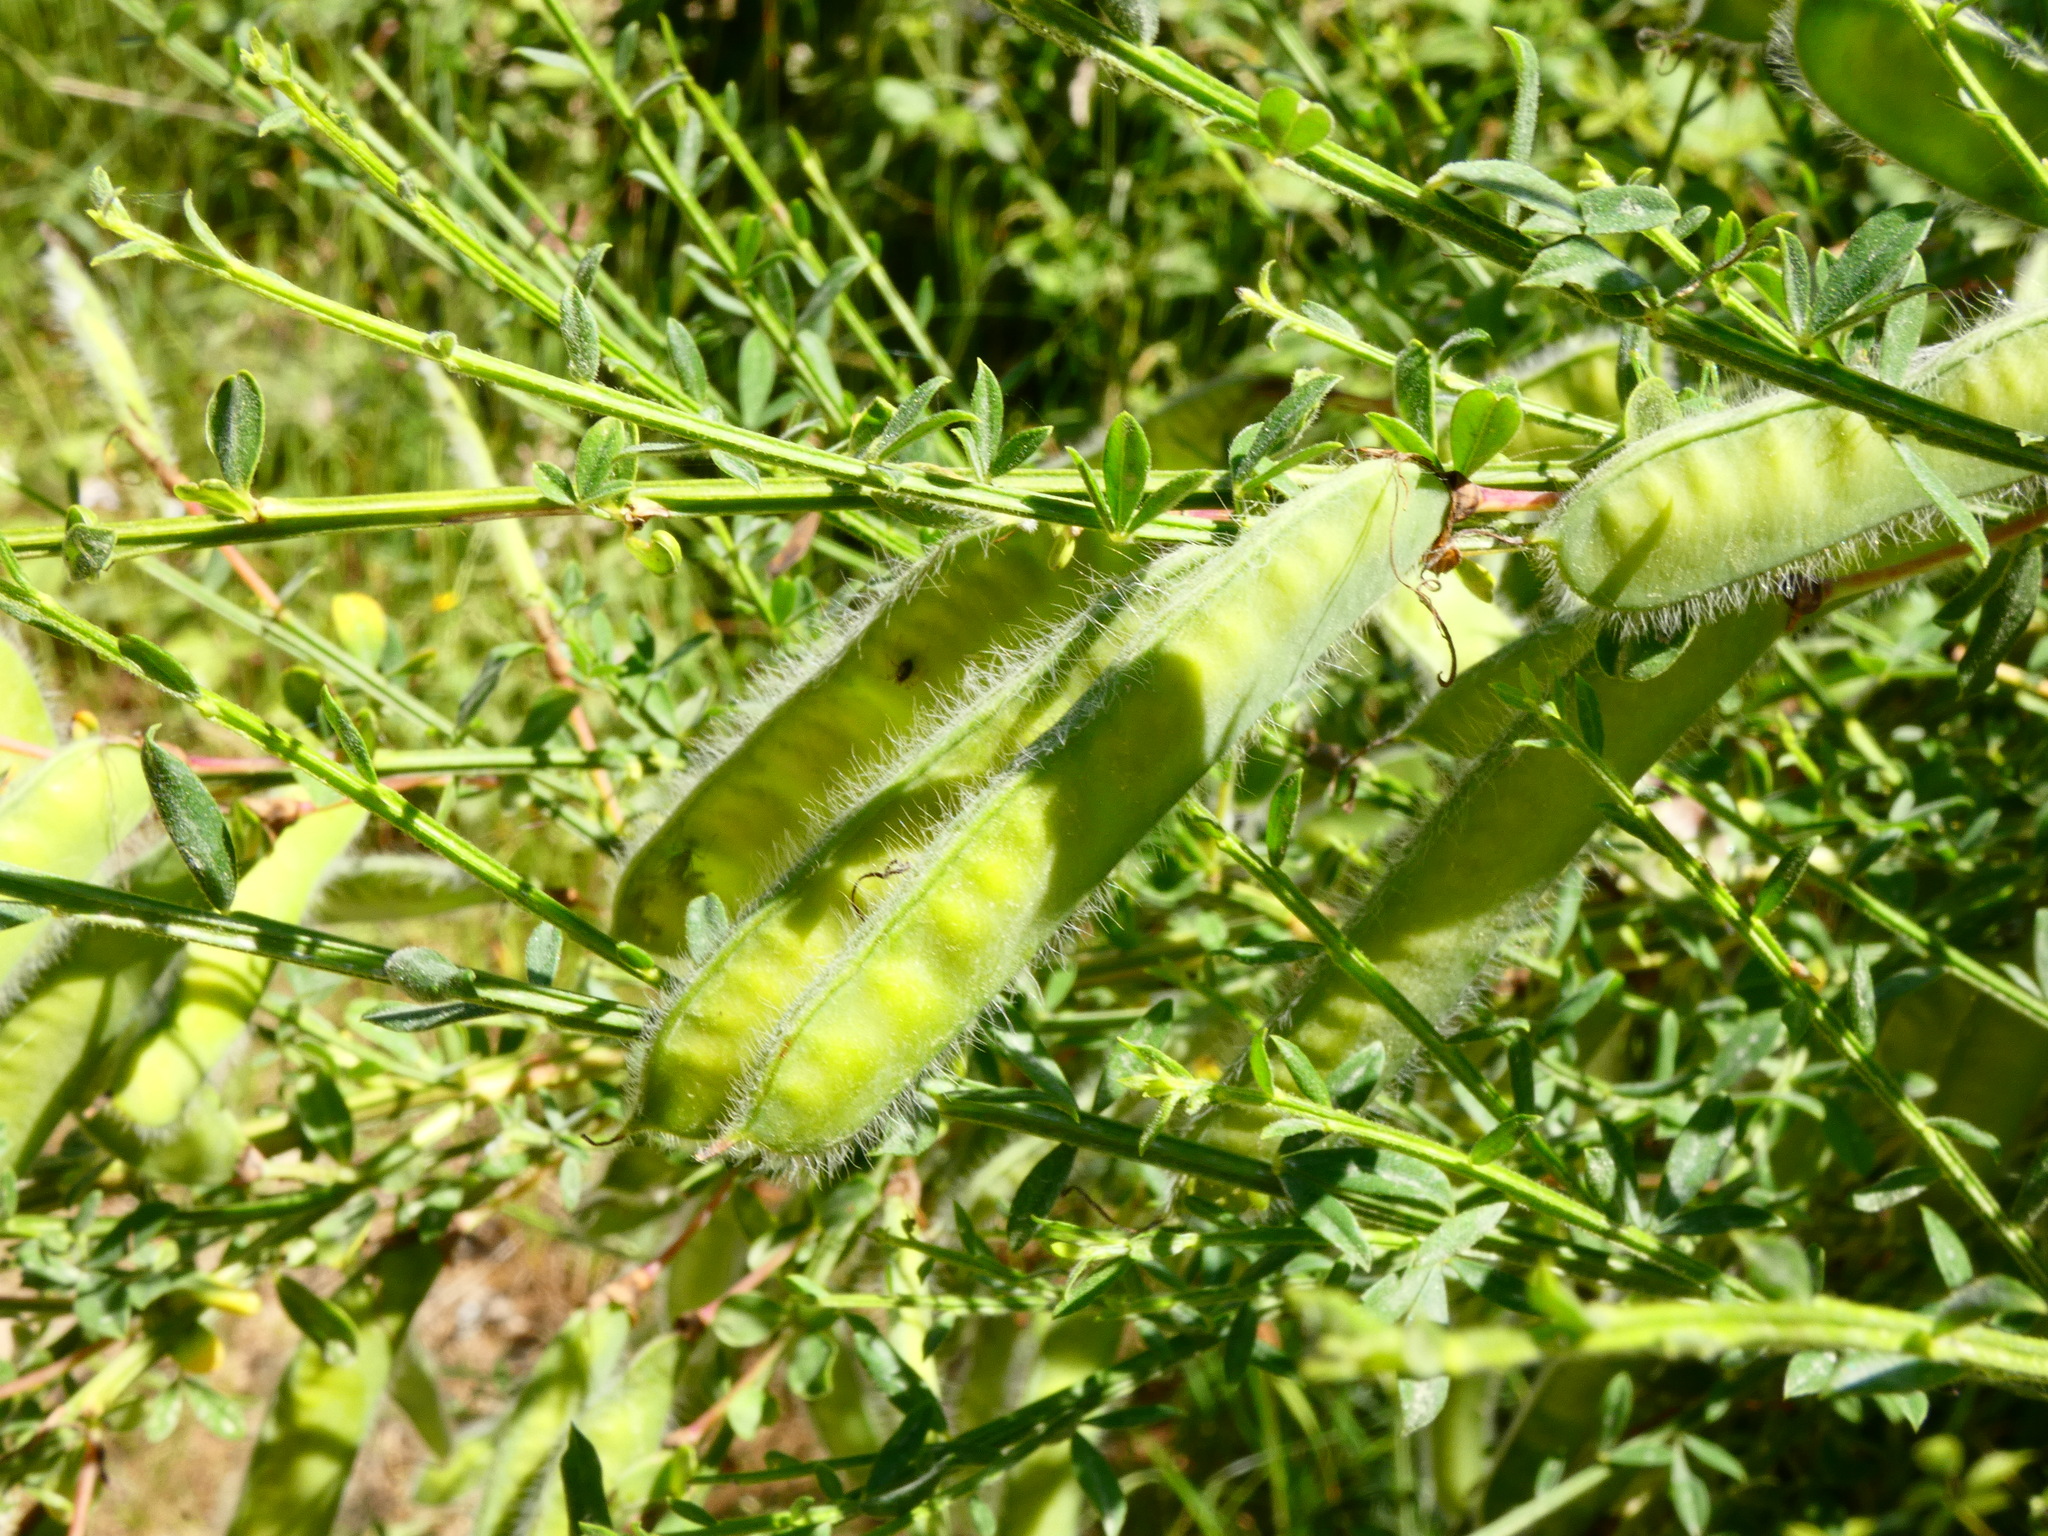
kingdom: Plantae
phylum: Tracheophyta
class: Magnoliopsida
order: Fabales
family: Fabaceae
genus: Cytisus
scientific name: Cytisus scoparius
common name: Scotch broom
